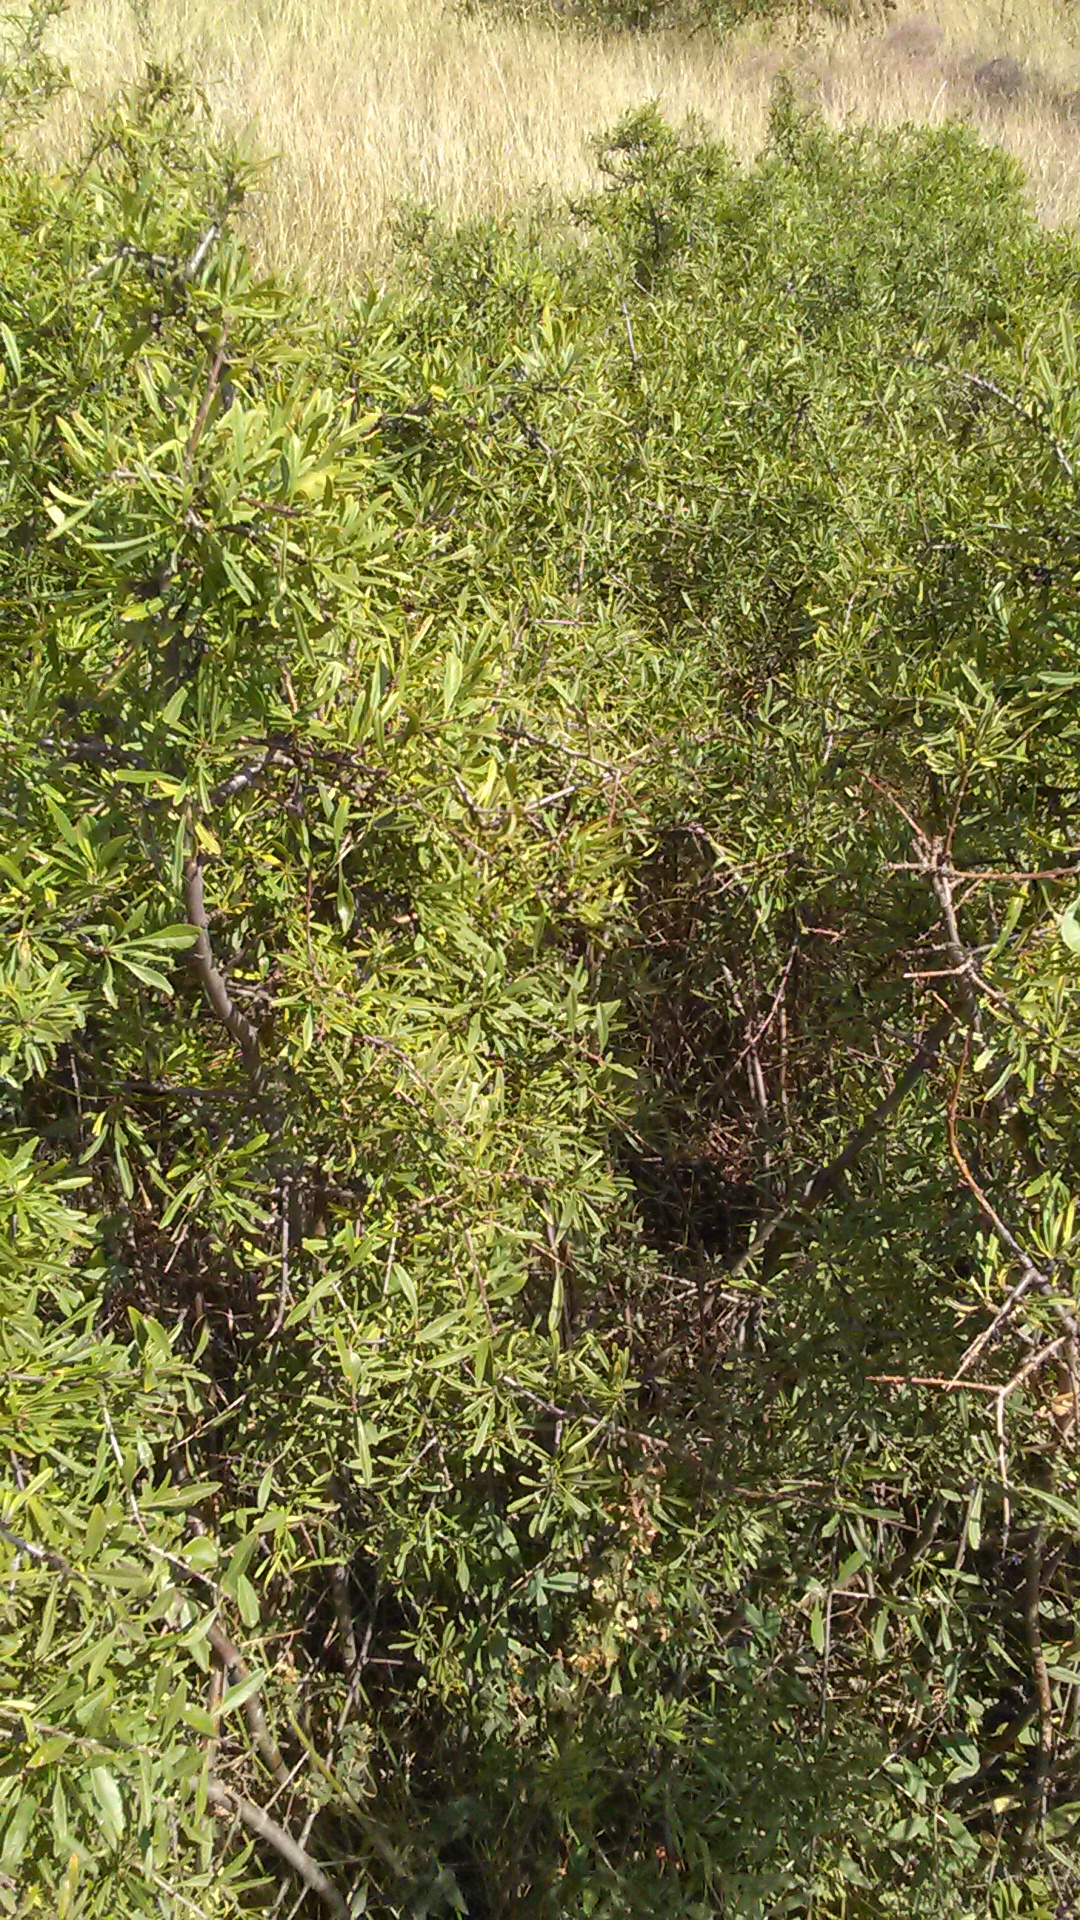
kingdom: Plantae
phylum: Tracheophyta
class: Magnoliopsida
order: Rosales
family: Rhamnaceae
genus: Rhamnus
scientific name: Rhamnus erythroxyloides
